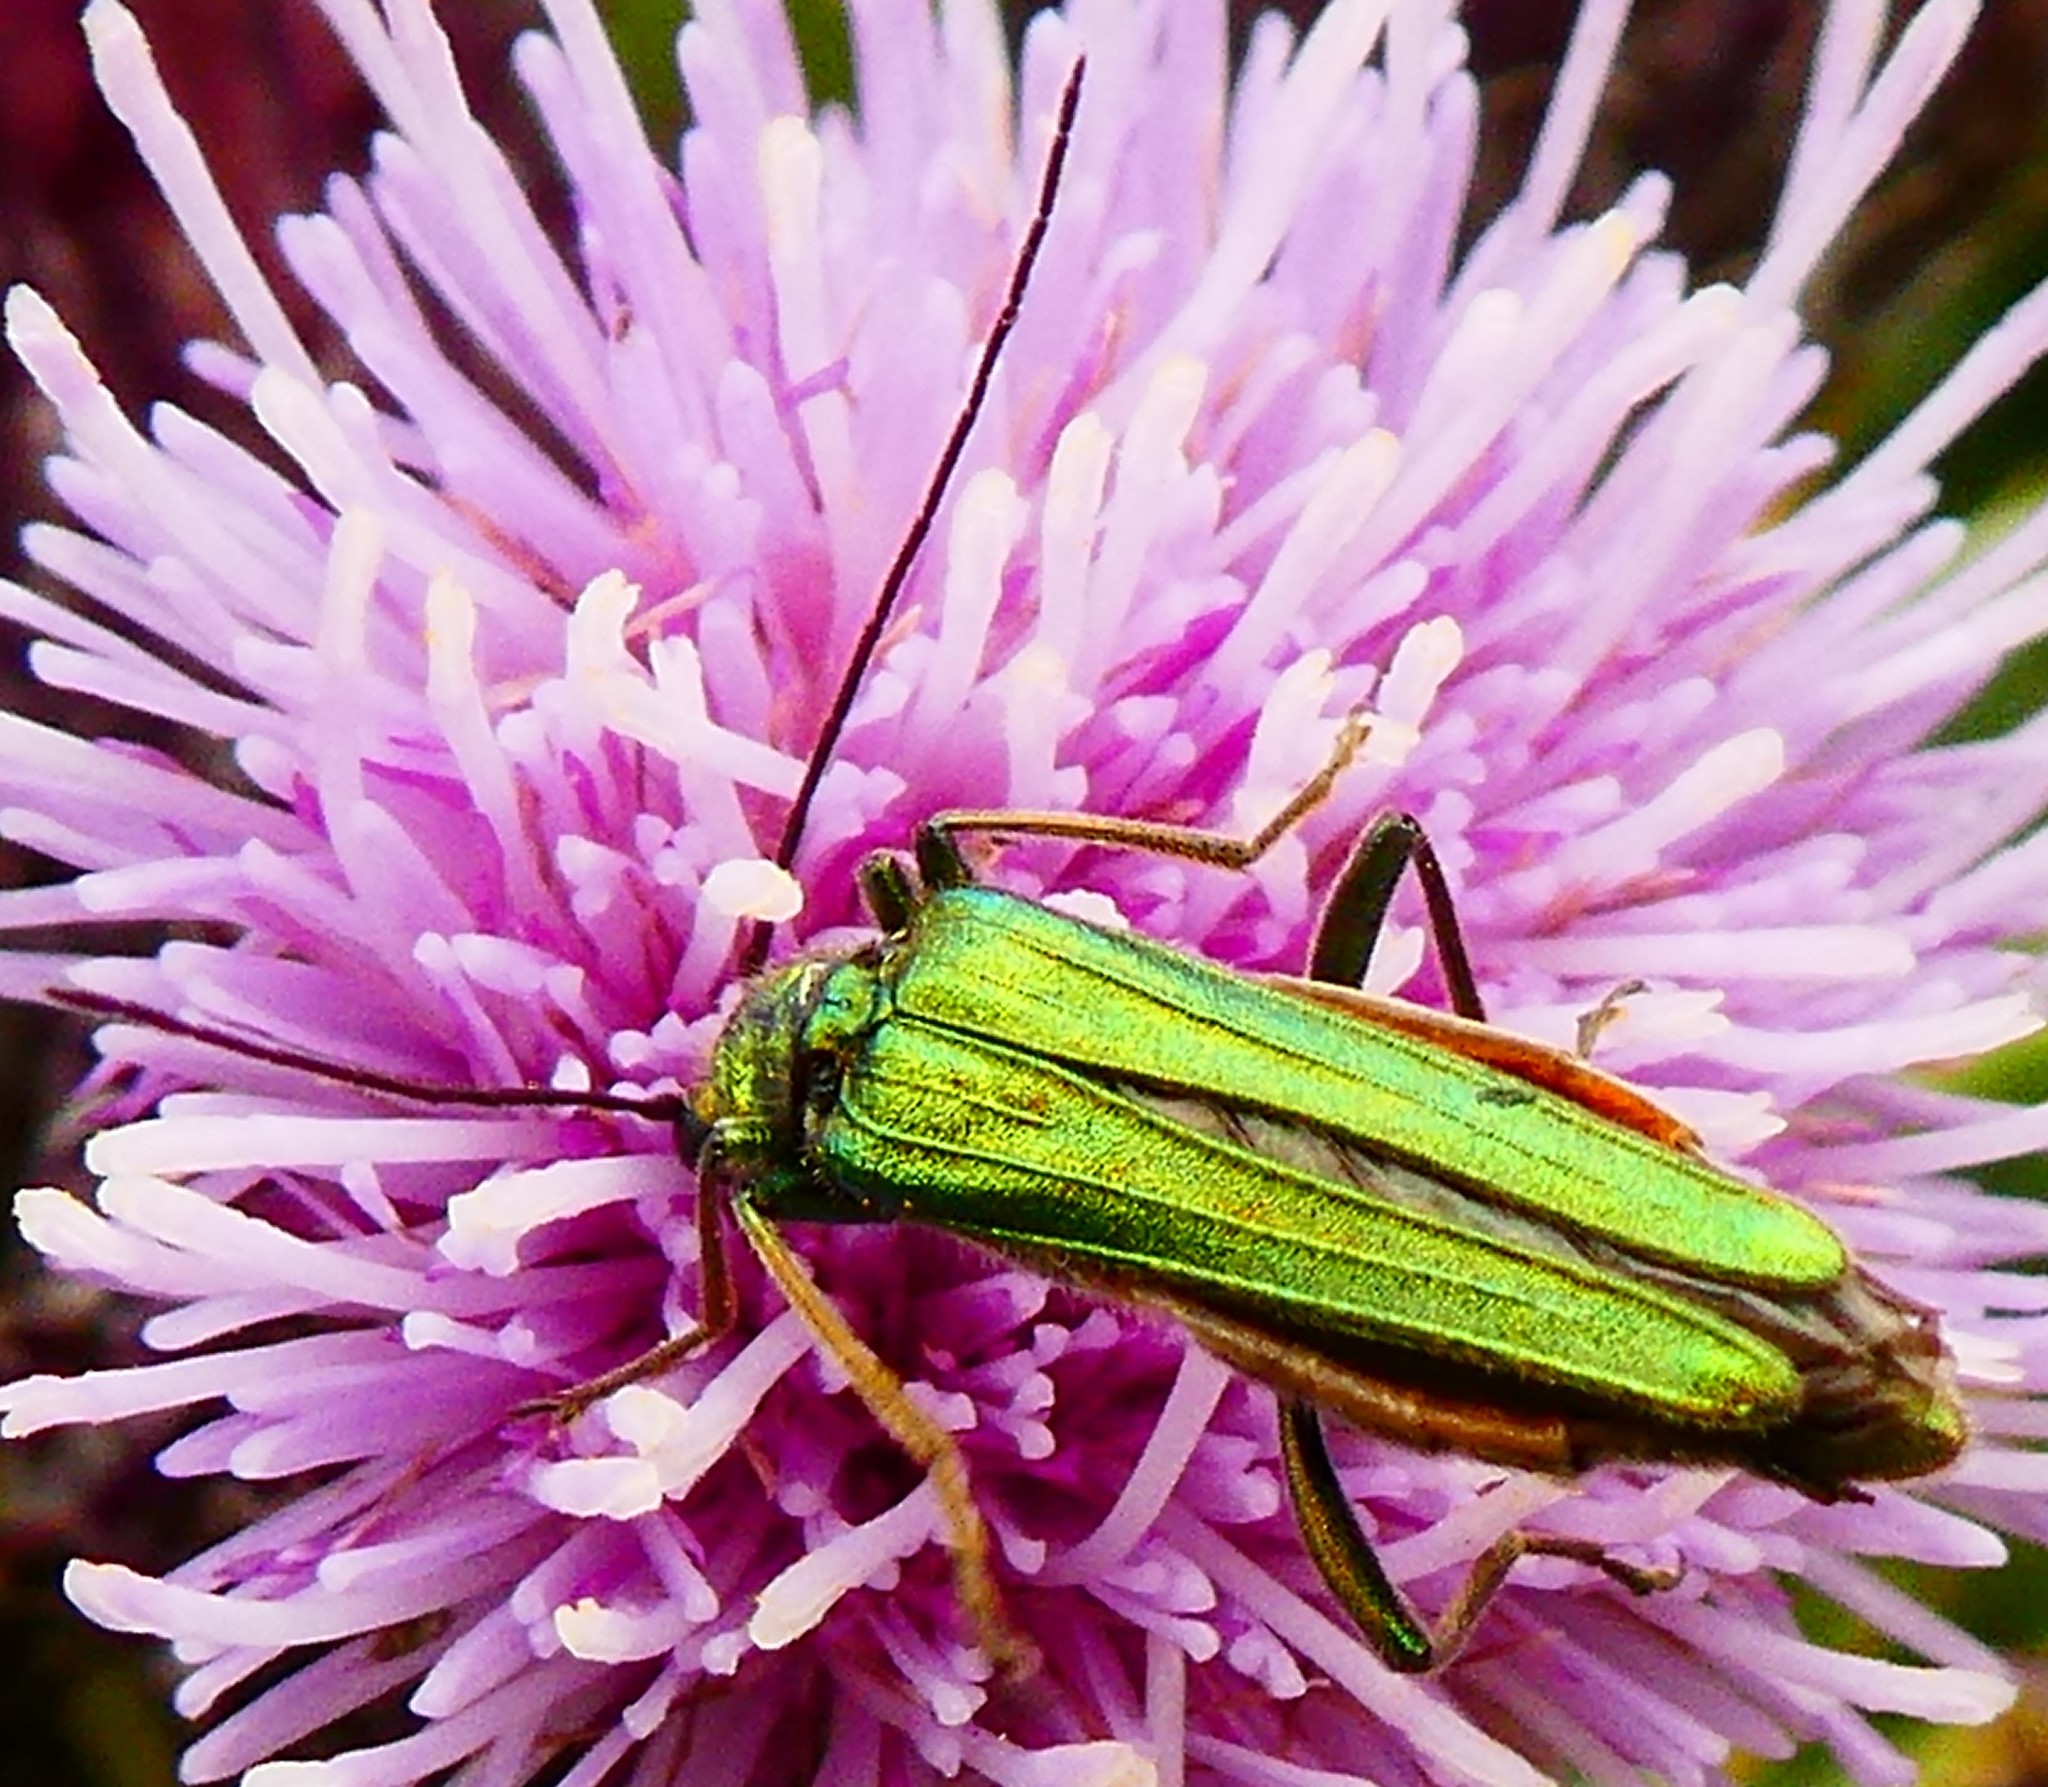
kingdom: Animalia
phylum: Arthropoda
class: Insecta
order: Coleoptera
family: Oedemeridae
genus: Oedemera
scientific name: Oedemera nobilis
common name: Swollen-thighed beetle
